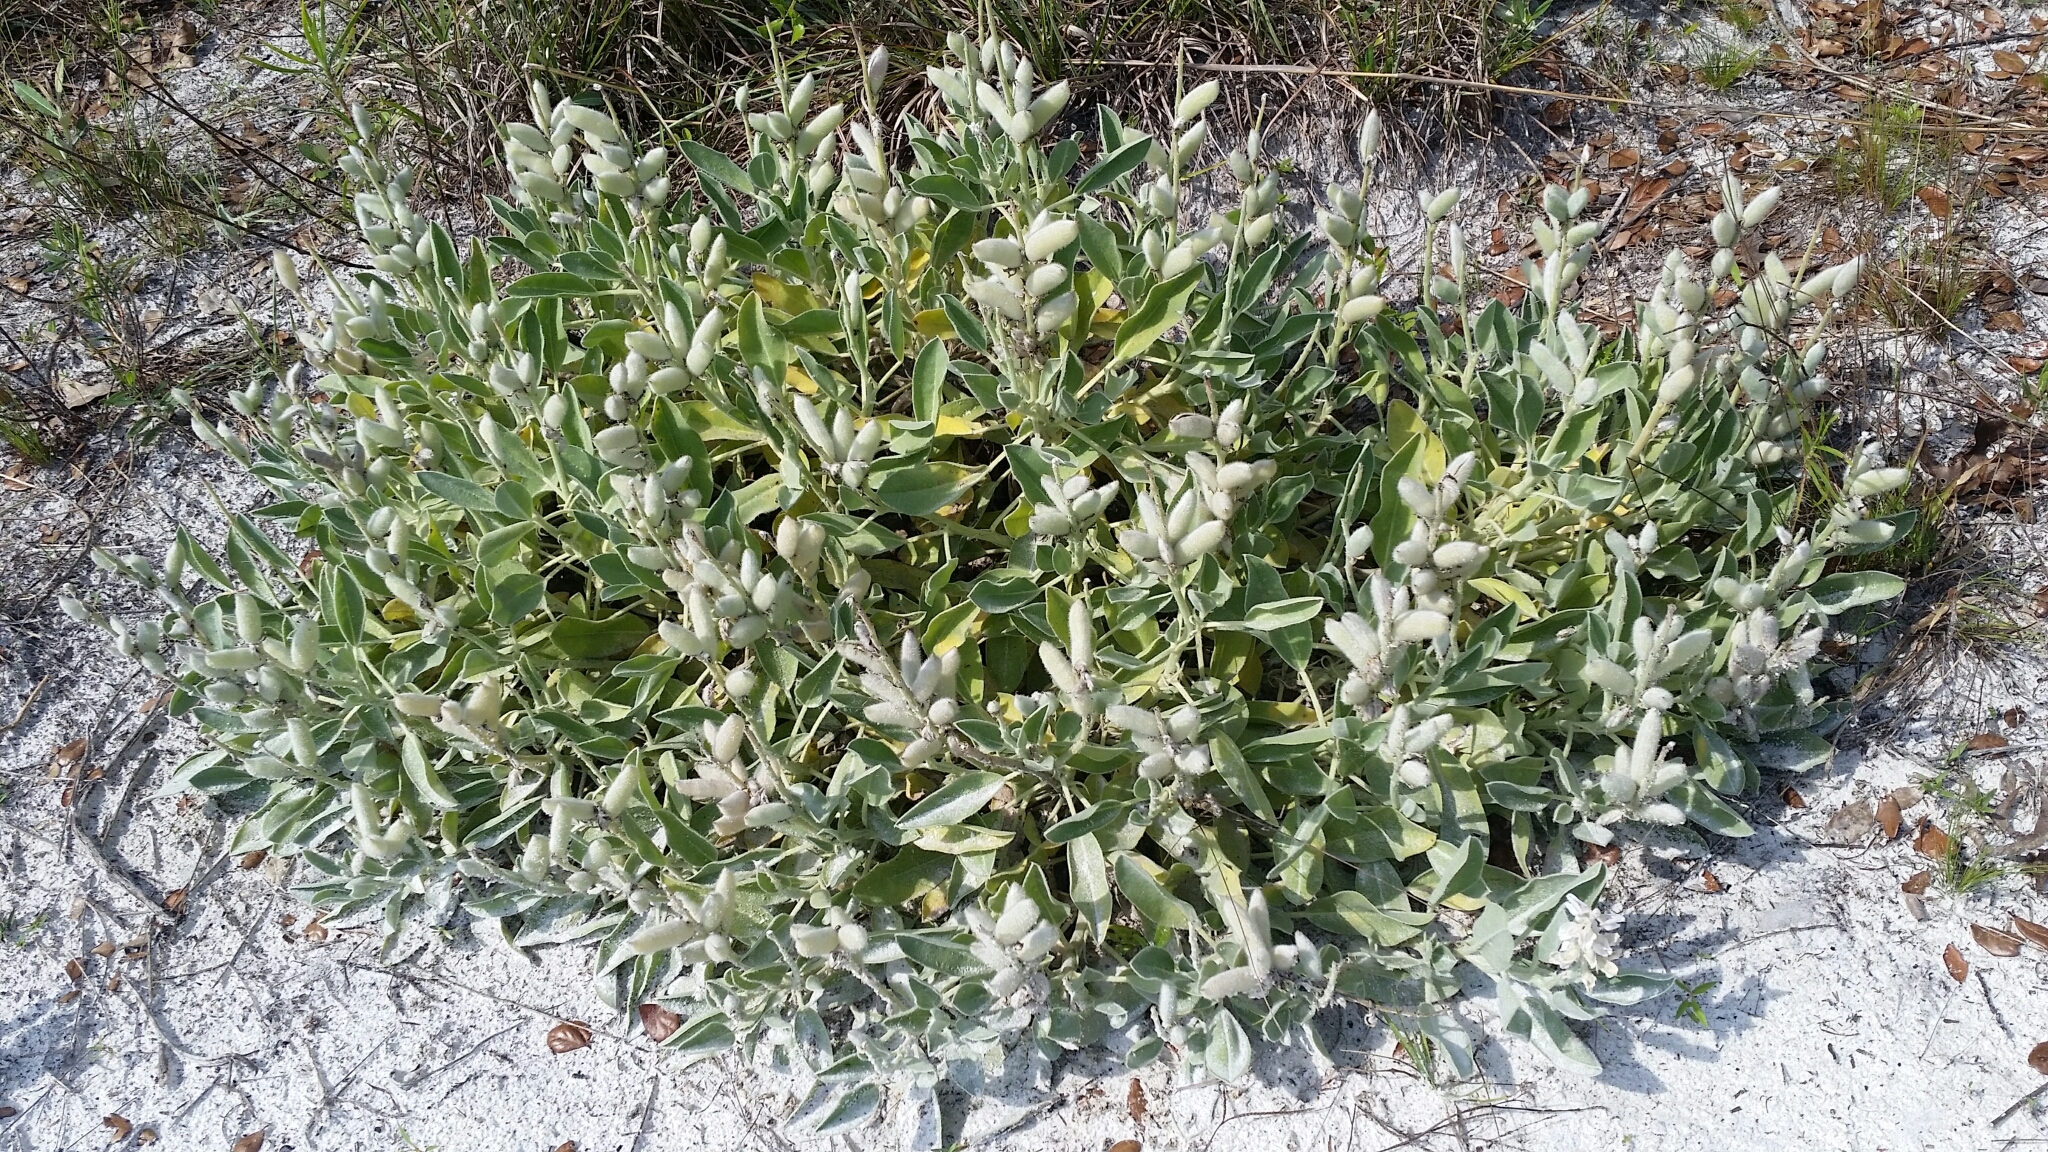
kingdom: Plantae
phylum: Tracheophyta
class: Magnoliopsida
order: Fabales
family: Fabaceae
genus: Lupinus
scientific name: Lupinus
